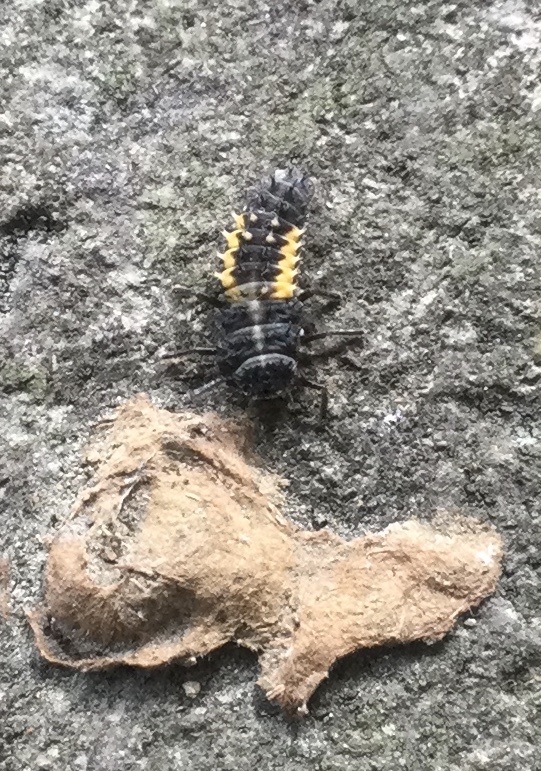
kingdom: Animalia
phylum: Arthropoda
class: Insecta
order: Coleoptera
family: Coccinellidae
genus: Harmonia
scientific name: Harmonia axyridis
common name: Harlequin ladybird
